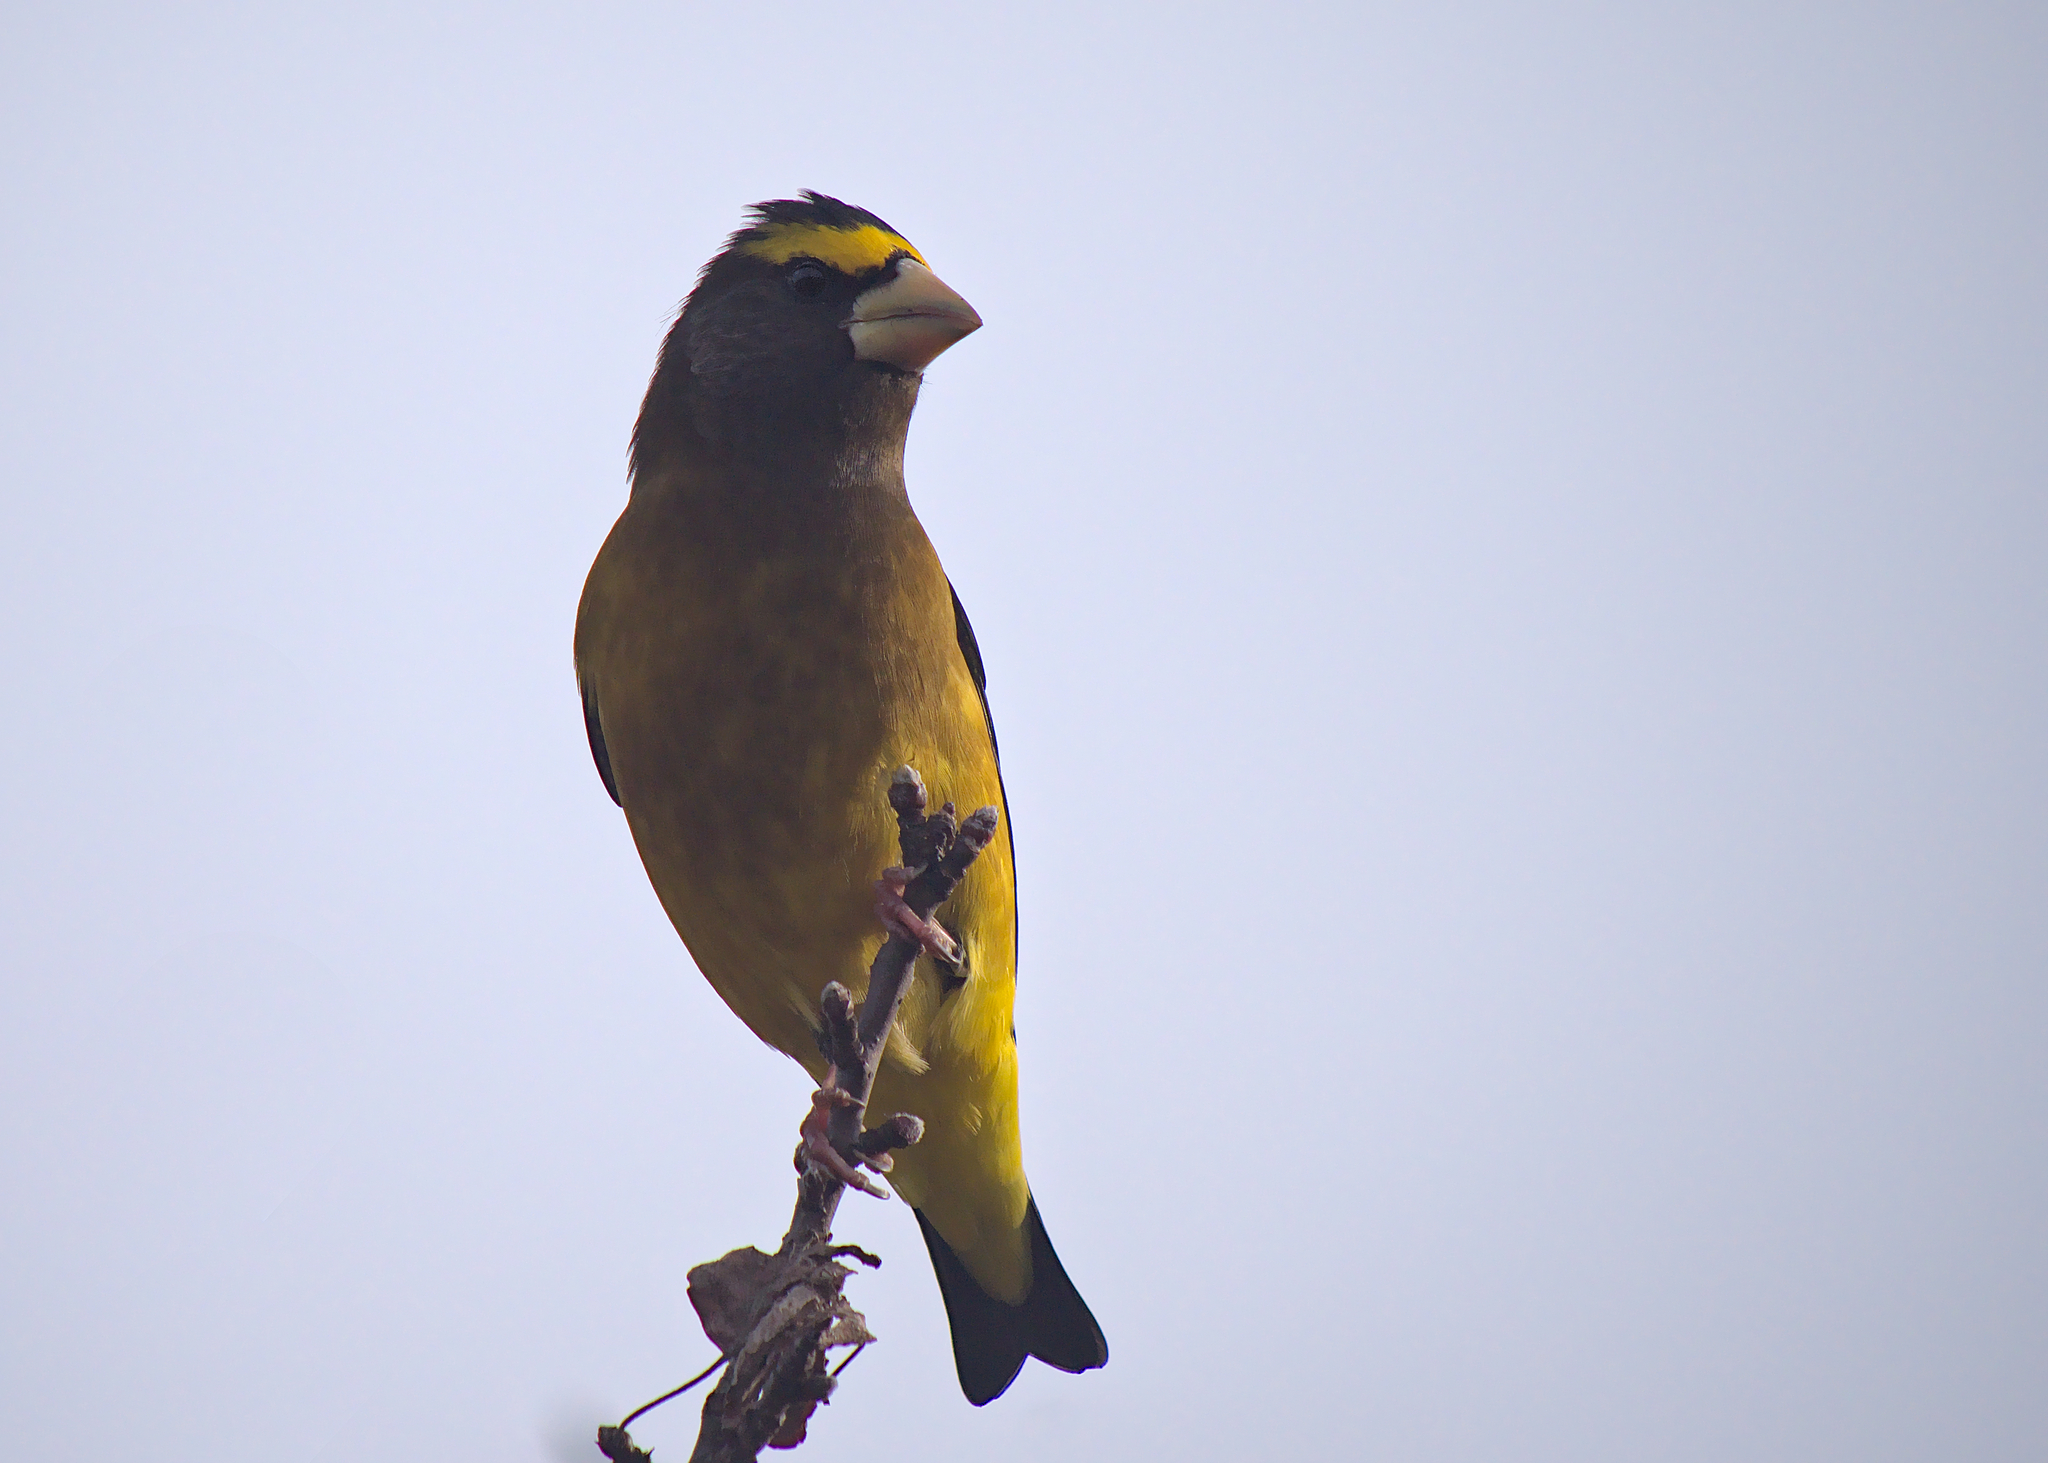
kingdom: Animalia
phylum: Chordata
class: Aves
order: Passeriformes
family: Fringillidae
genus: Hesperiphona
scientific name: Hesperiphona vespertina
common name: Evening grosbeak
